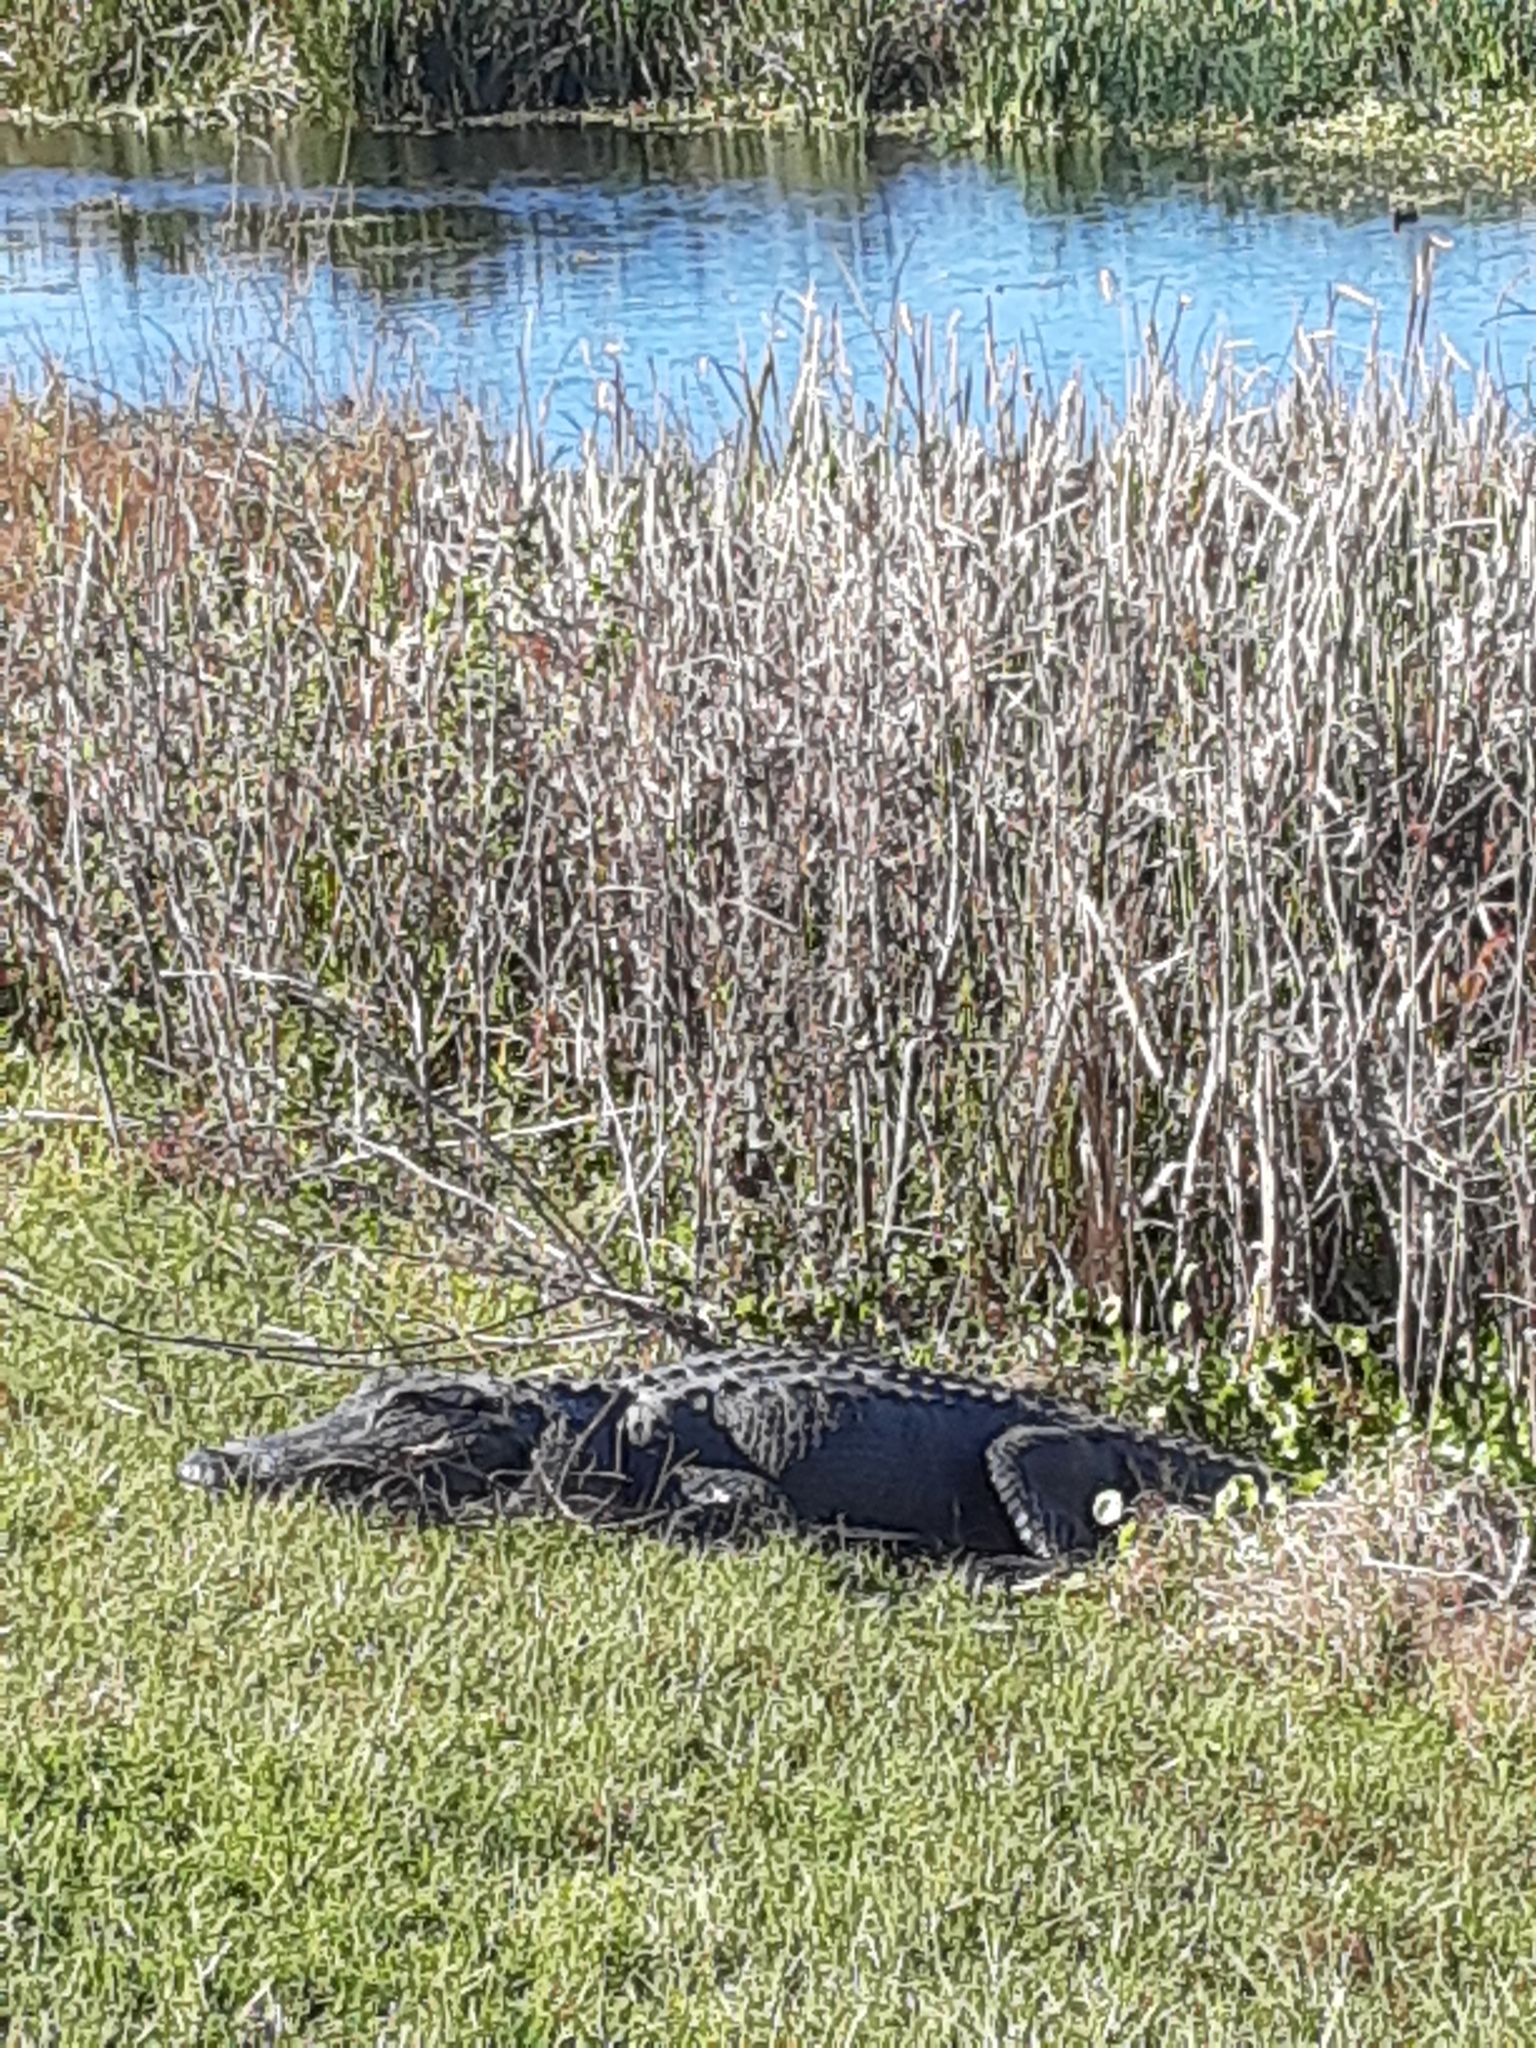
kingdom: Animalia
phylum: Chordata
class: Crocodylia
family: Alligatoridae
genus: Alligator
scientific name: Alligator mississippiensis
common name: American alligator
